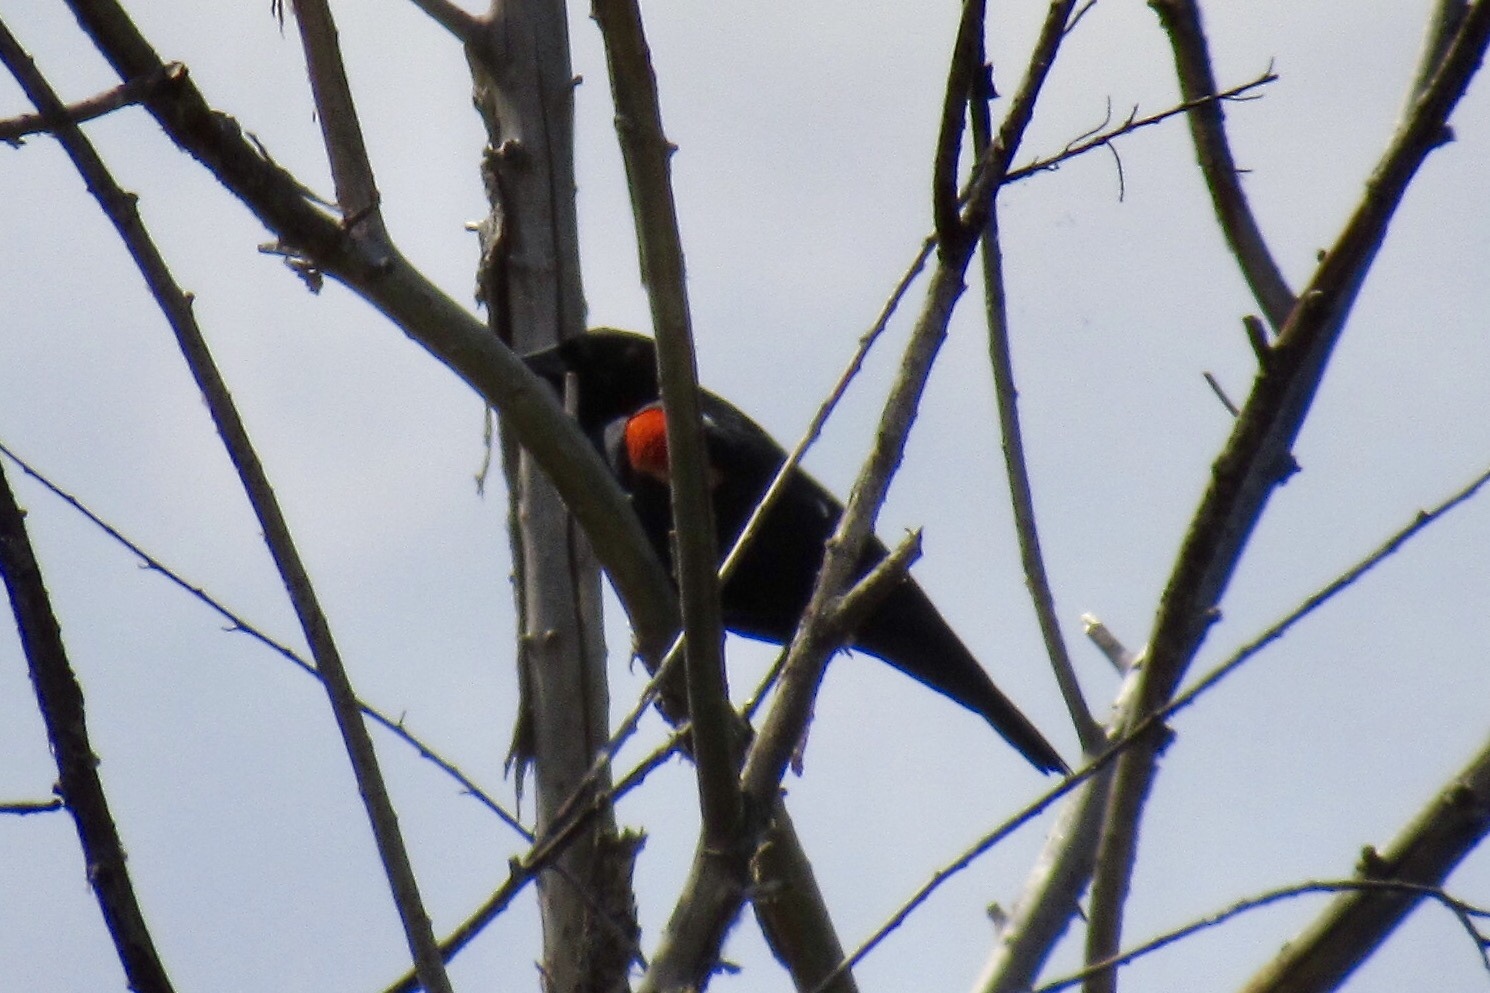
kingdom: Animalia
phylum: Chordata
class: Aves
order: Passeriformes
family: Icteridae
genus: Agelaius
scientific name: Agelaius phoeniceus
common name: Red-winged blackbird
